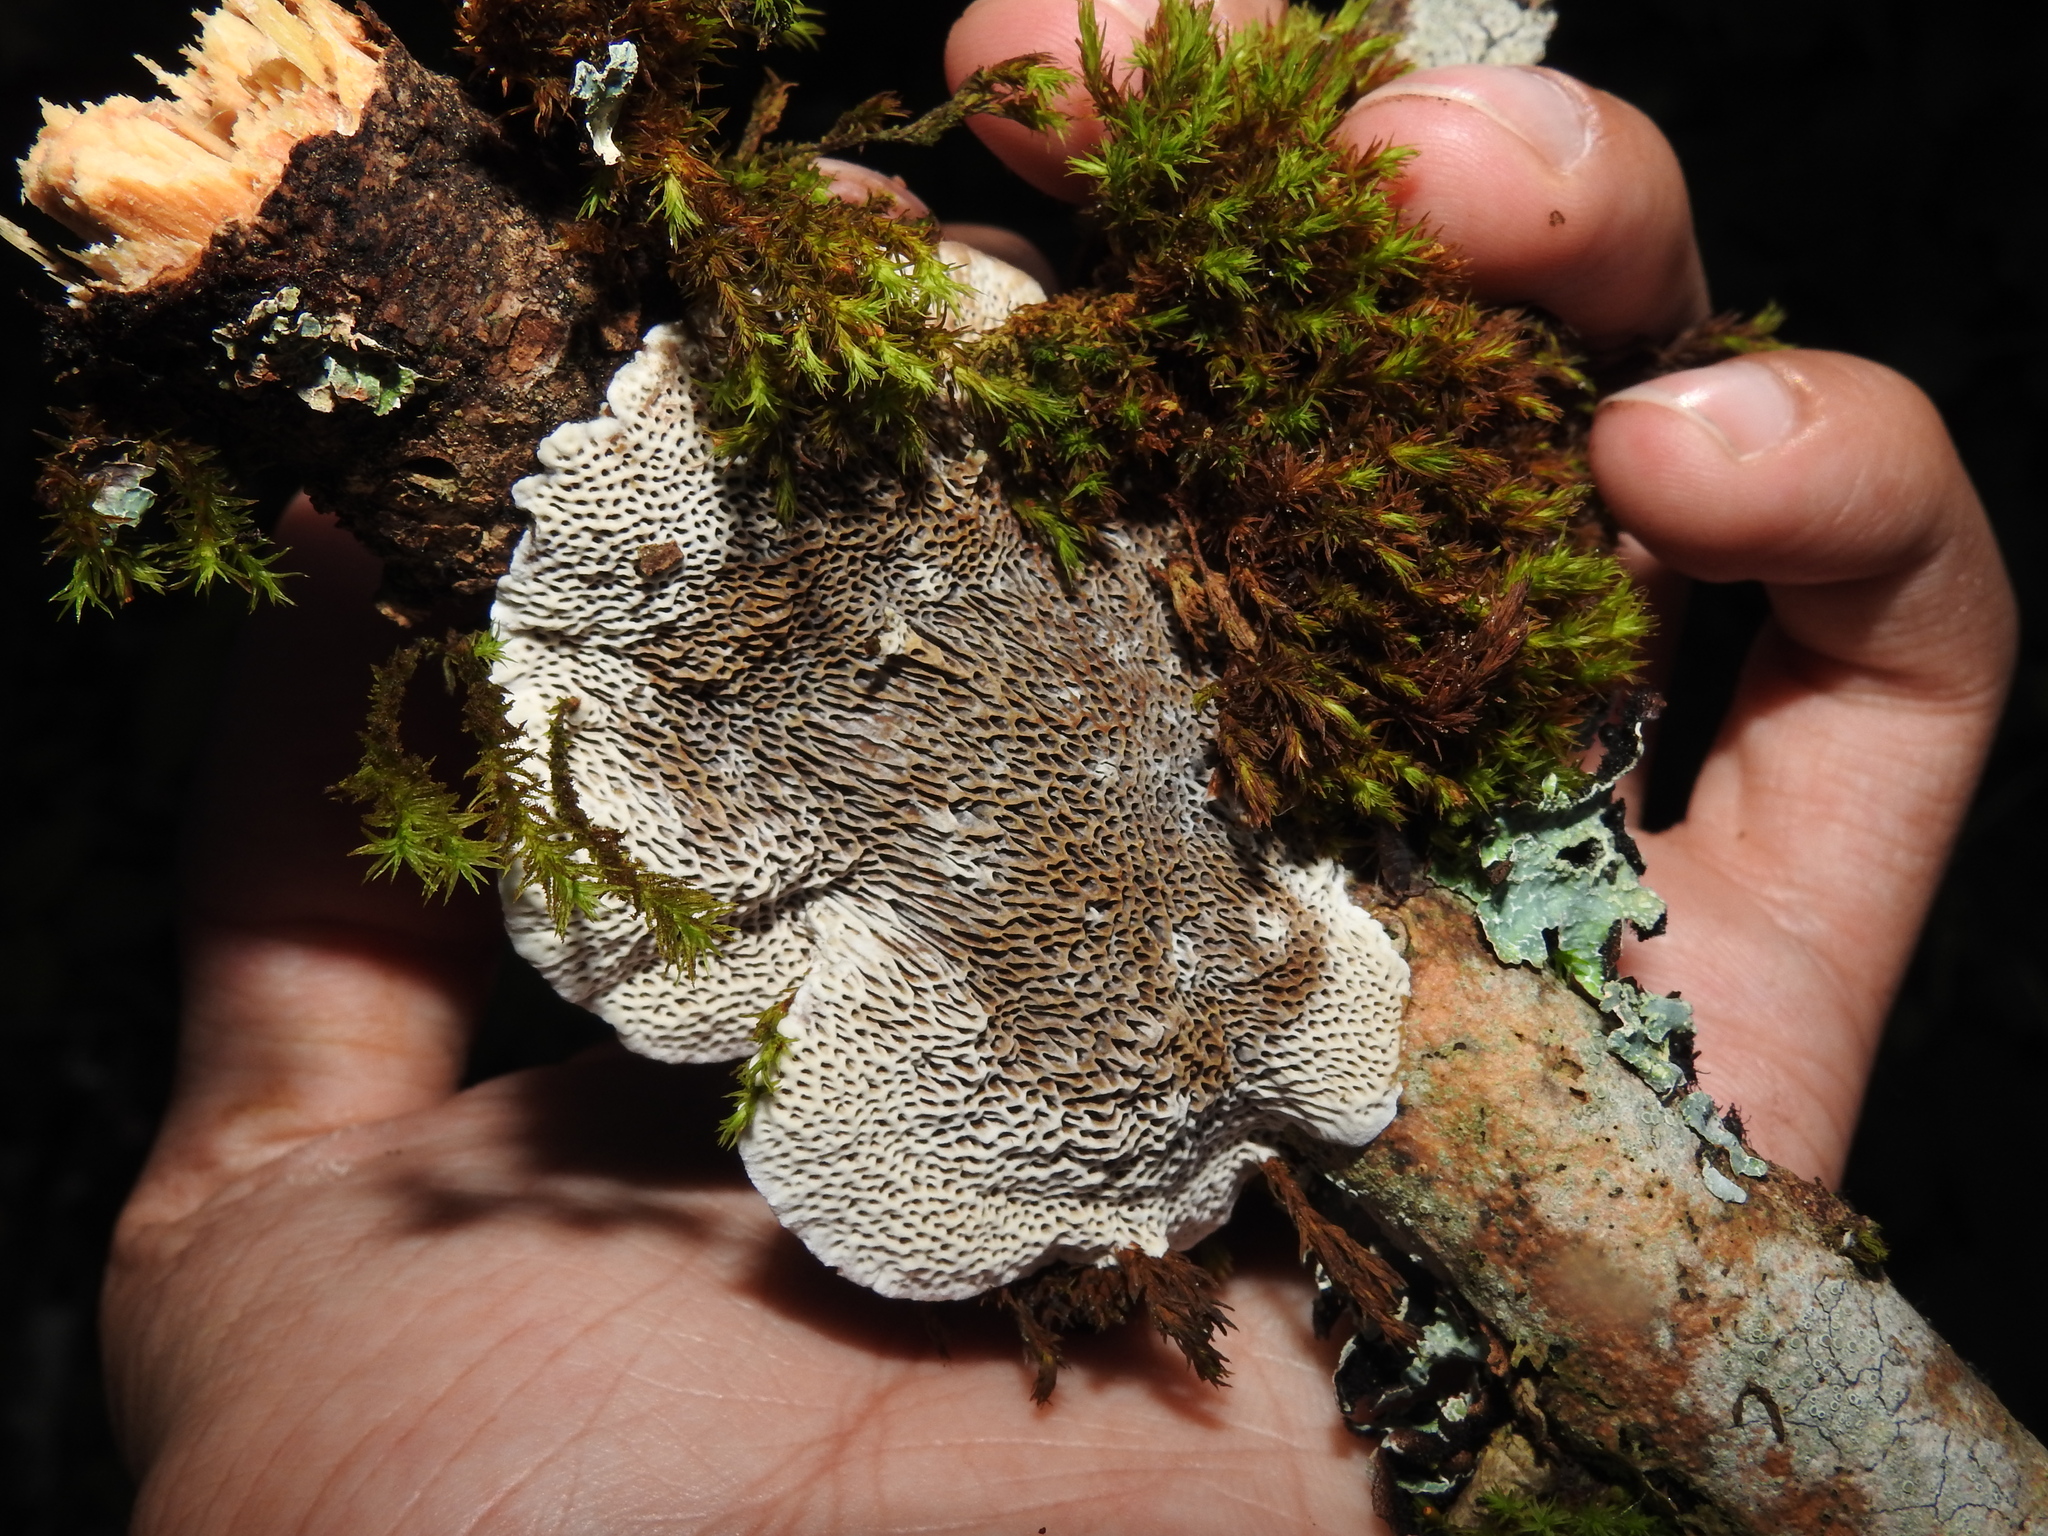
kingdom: Fungi
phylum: Basidiomycota
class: Agaricomycetes
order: Polyporales
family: Polyporaceae
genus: Podofomes
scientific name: Podofomes mollis
